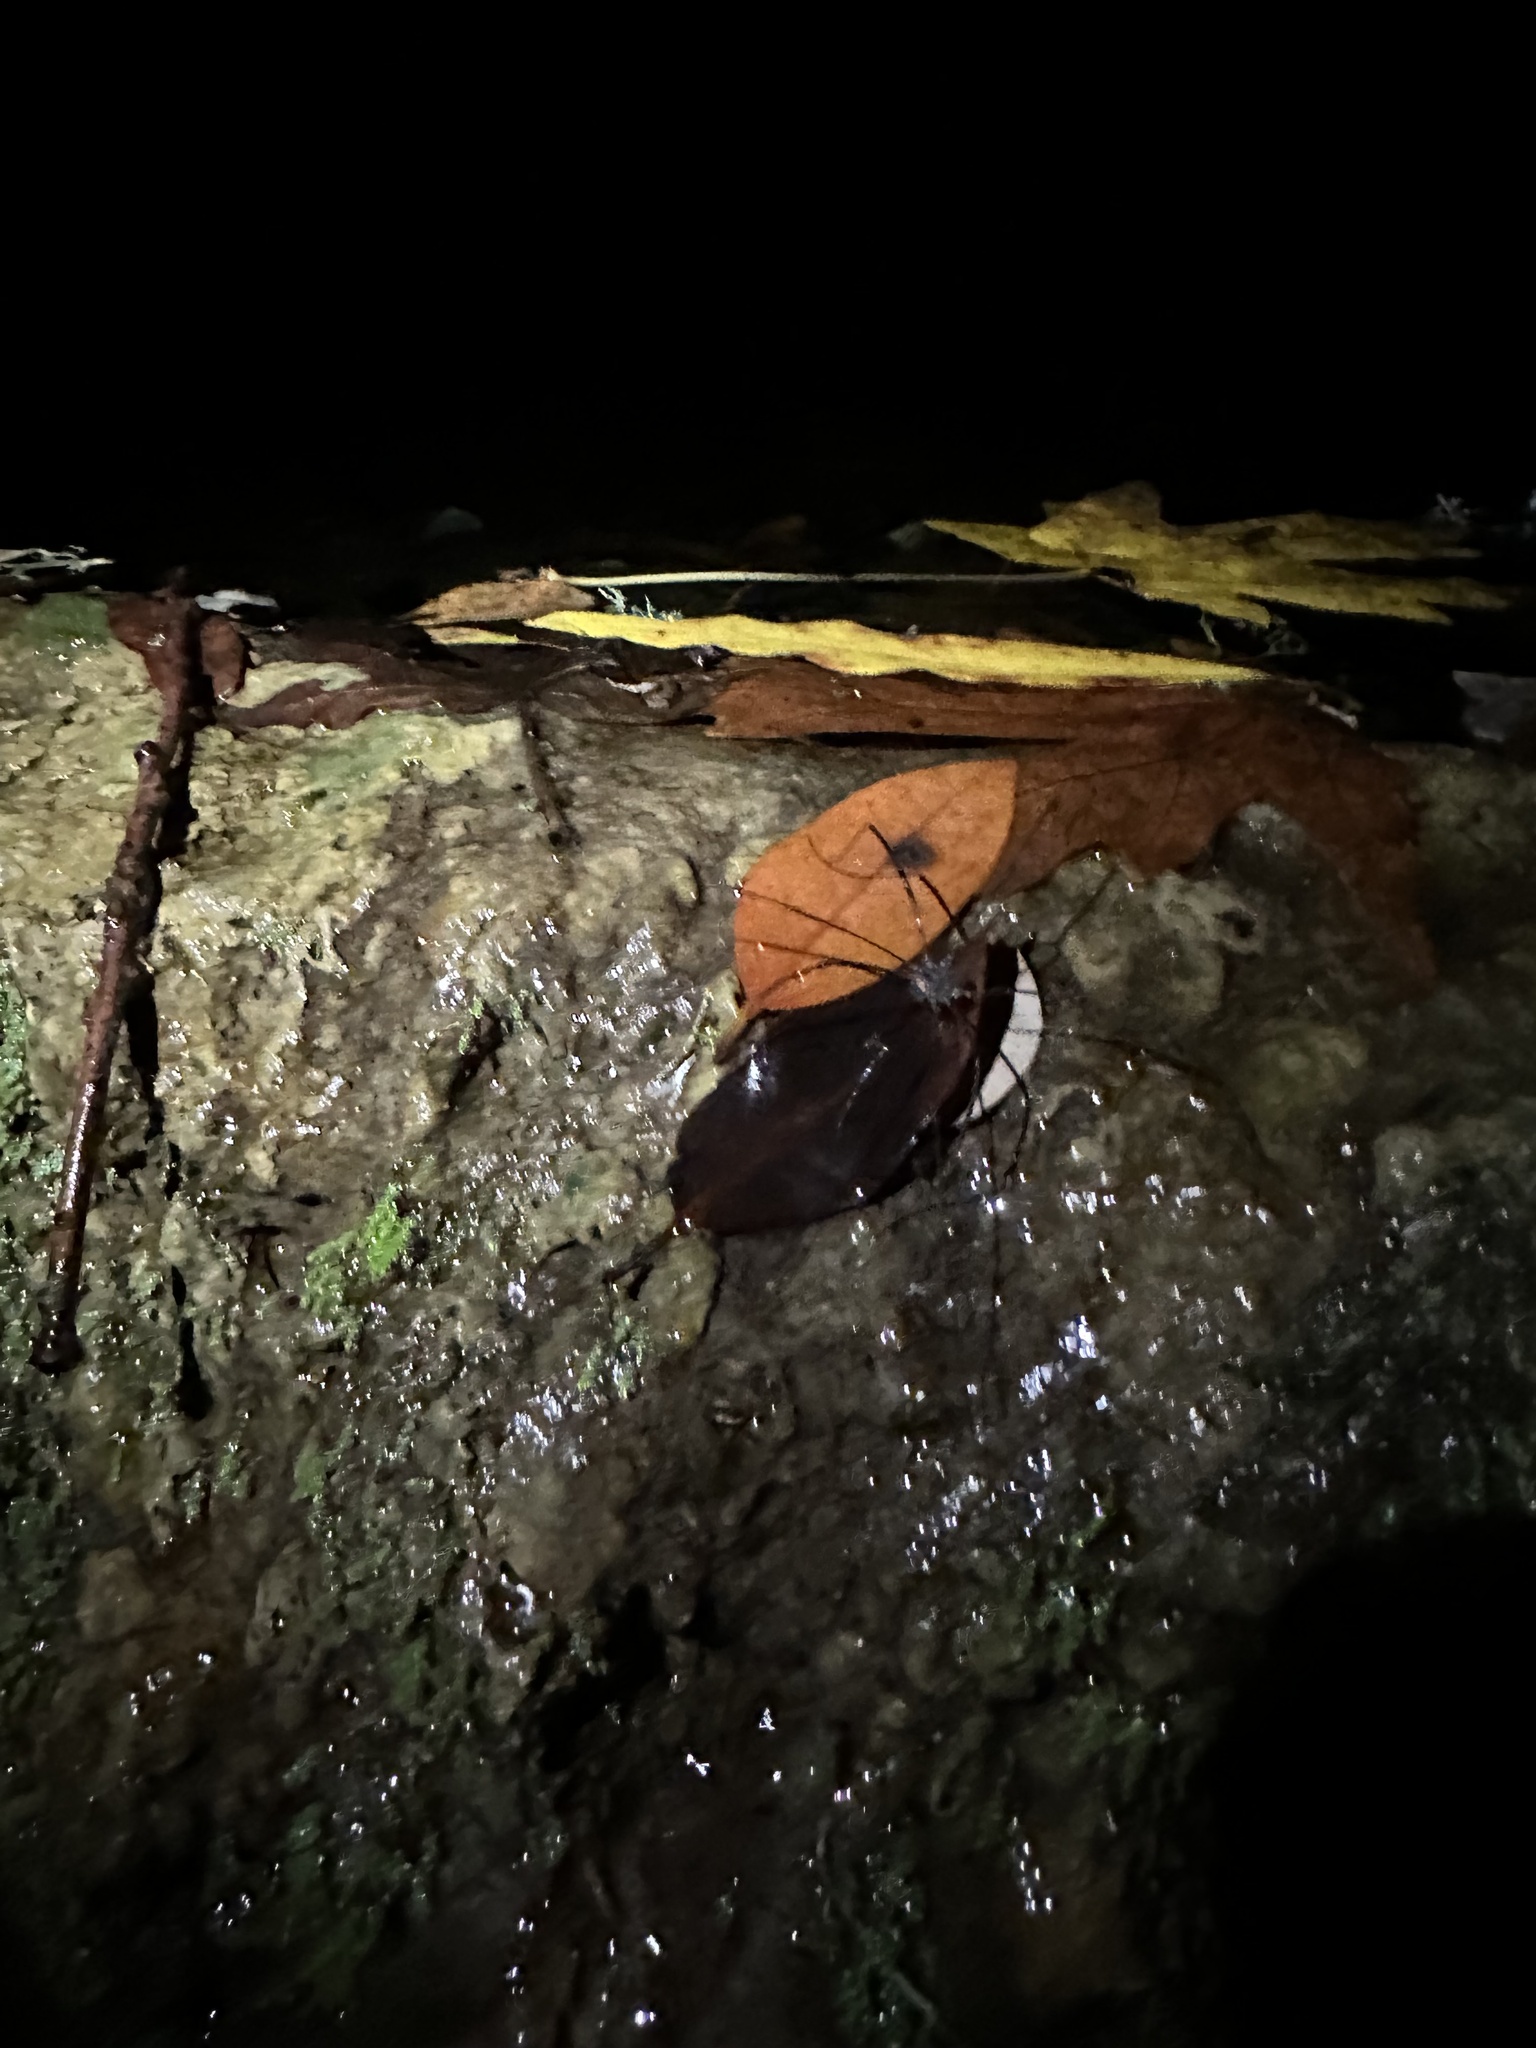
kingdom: Animalia
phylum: Arthropoda
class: Arachnida
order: Opiliones
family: Sclerosomatidae
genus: Leiobunum
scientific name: Leiobunum exilipes
